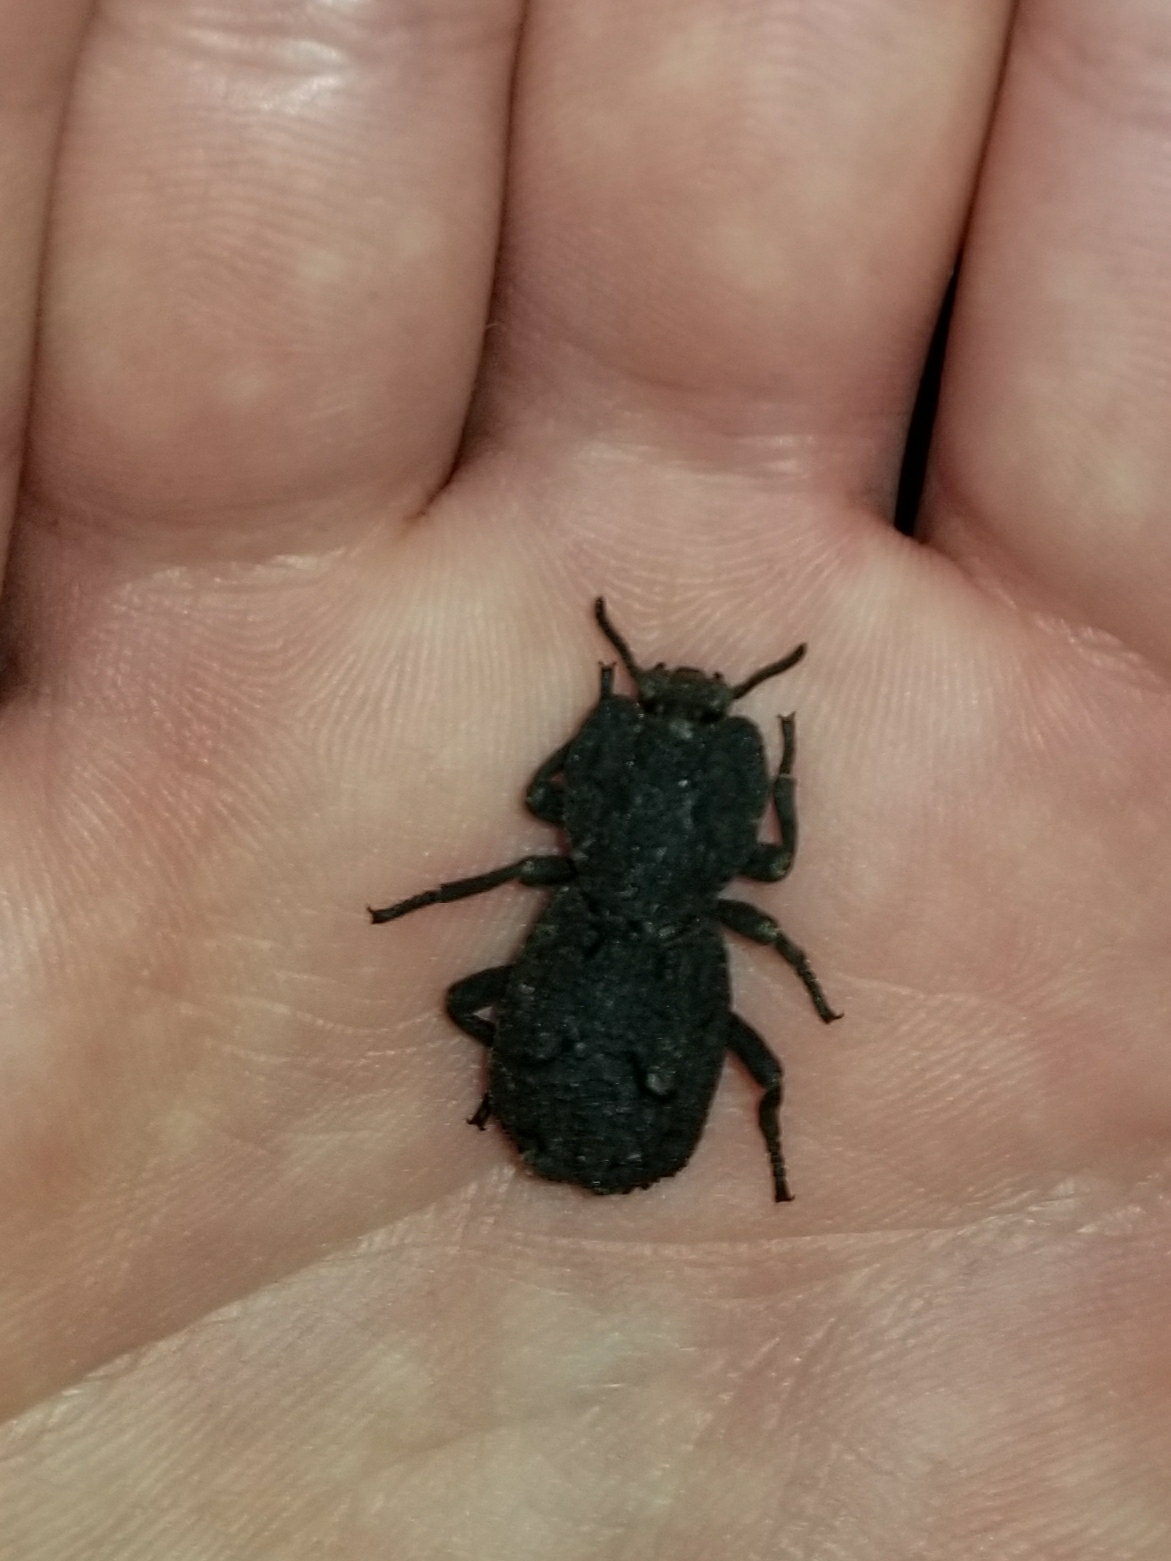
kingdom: Animalia
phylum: Arthropoda
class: Insecta
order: Coleoptera
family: Zopheridae
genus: Phloeodes
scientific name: Phloeodes diabolicus
